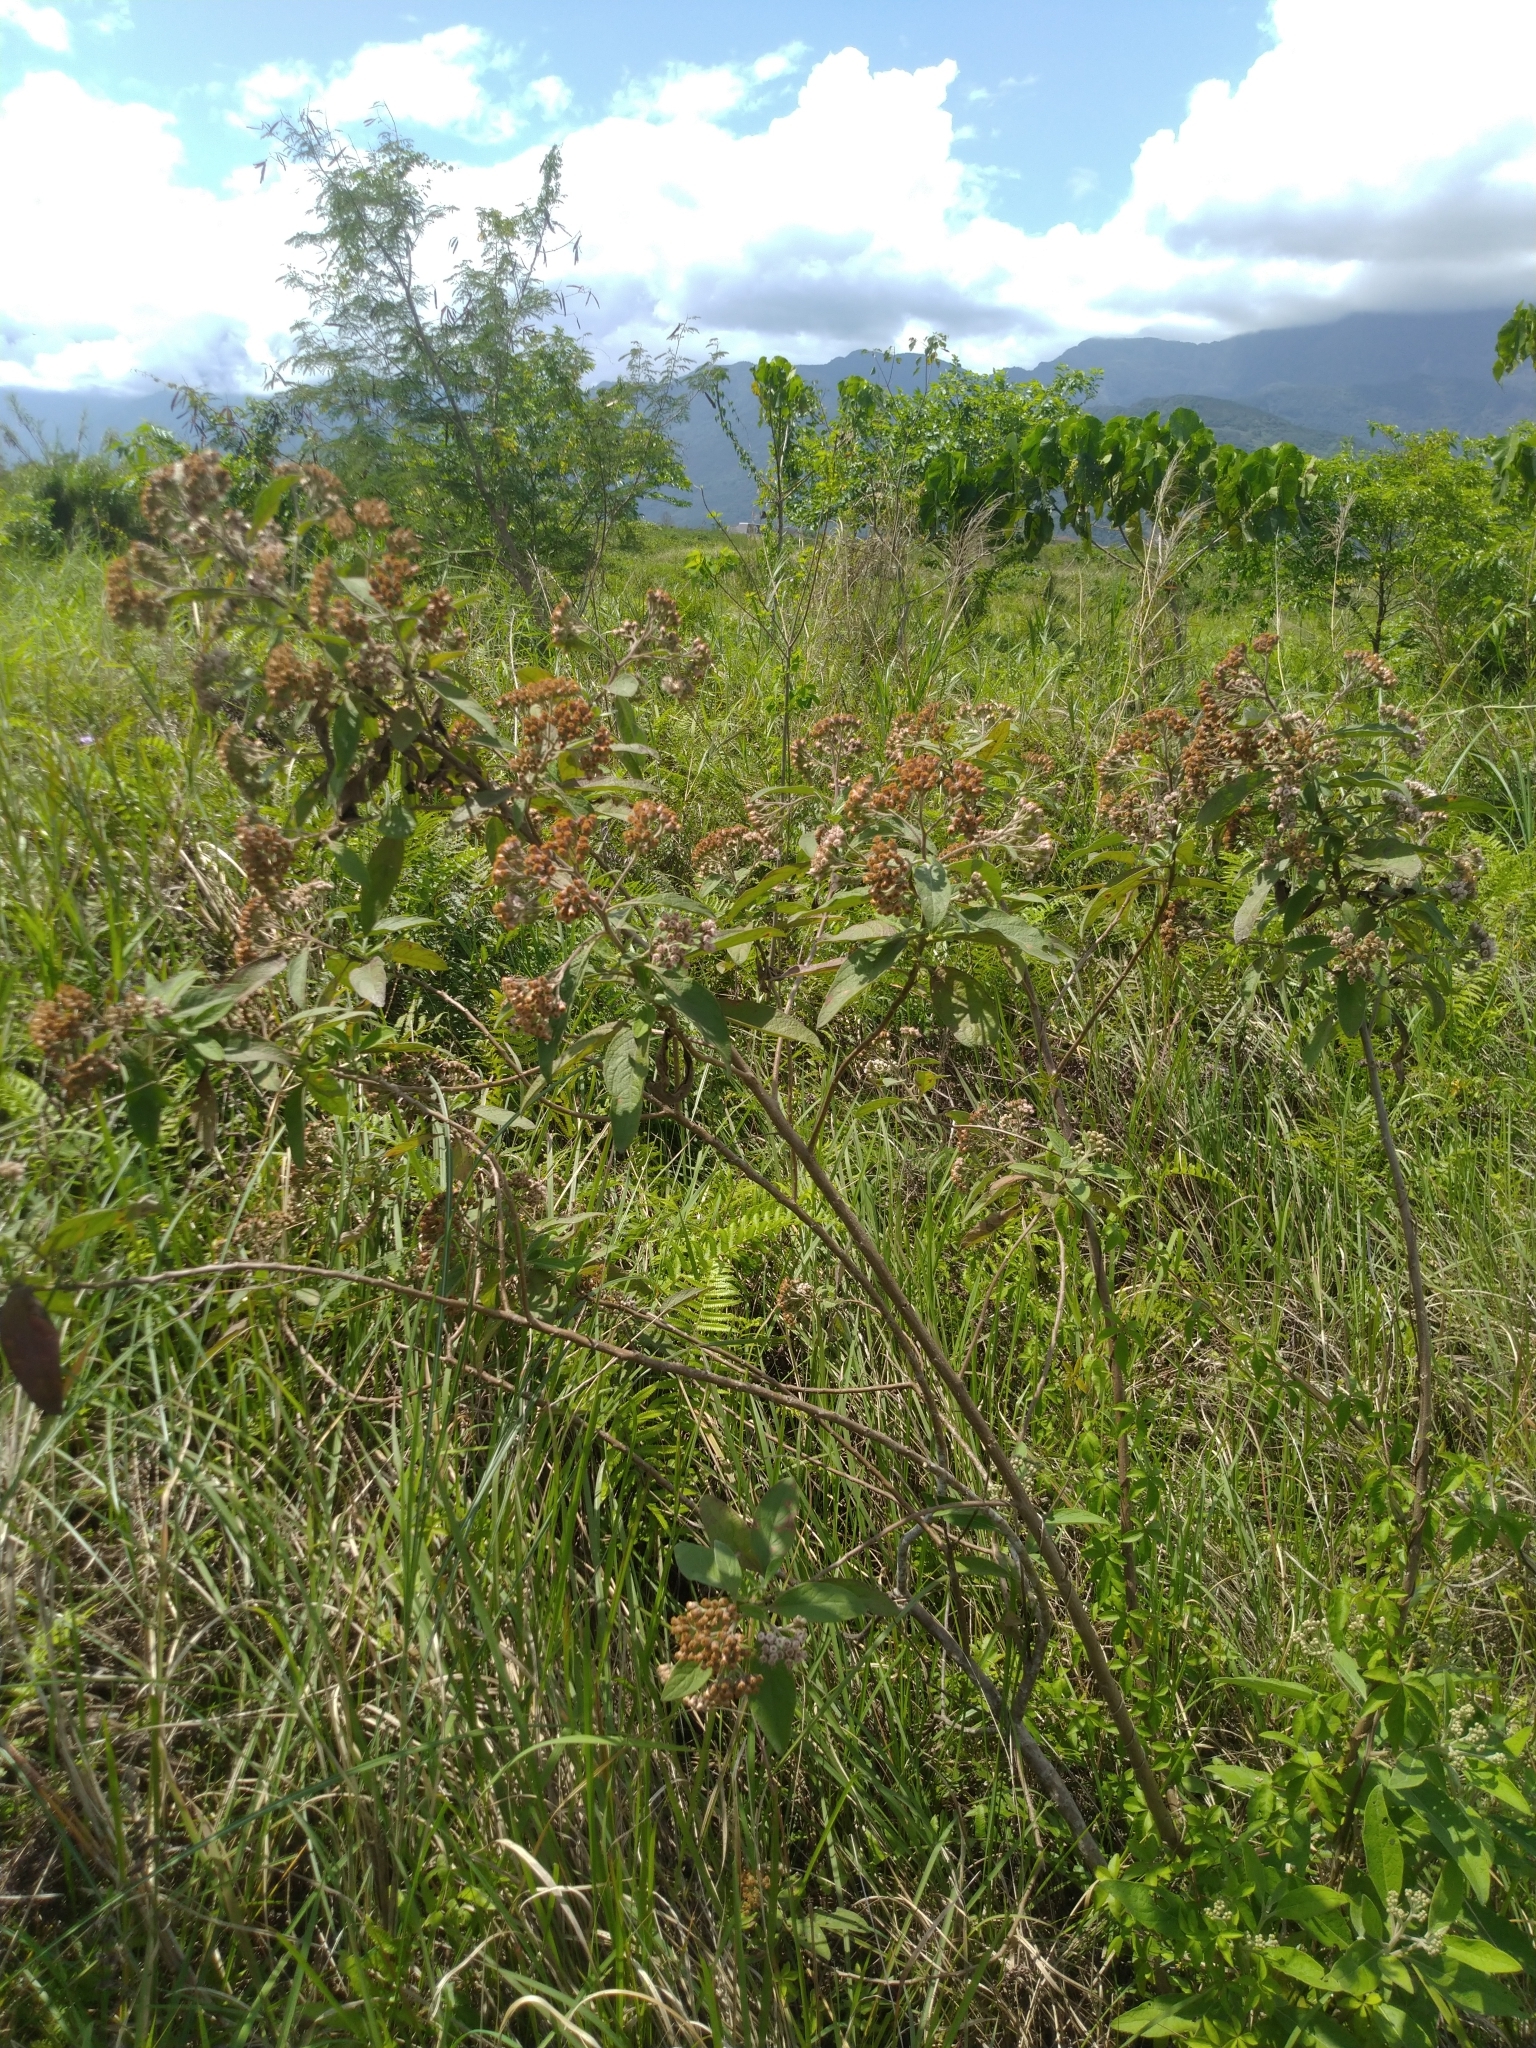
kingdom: Plantae
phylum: Tracheophyta
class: Magnoliopsida
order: Asterales
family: Asteraceae
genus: Pluchea
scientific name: Pluchea carolinensis
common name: Marsh fleabane
